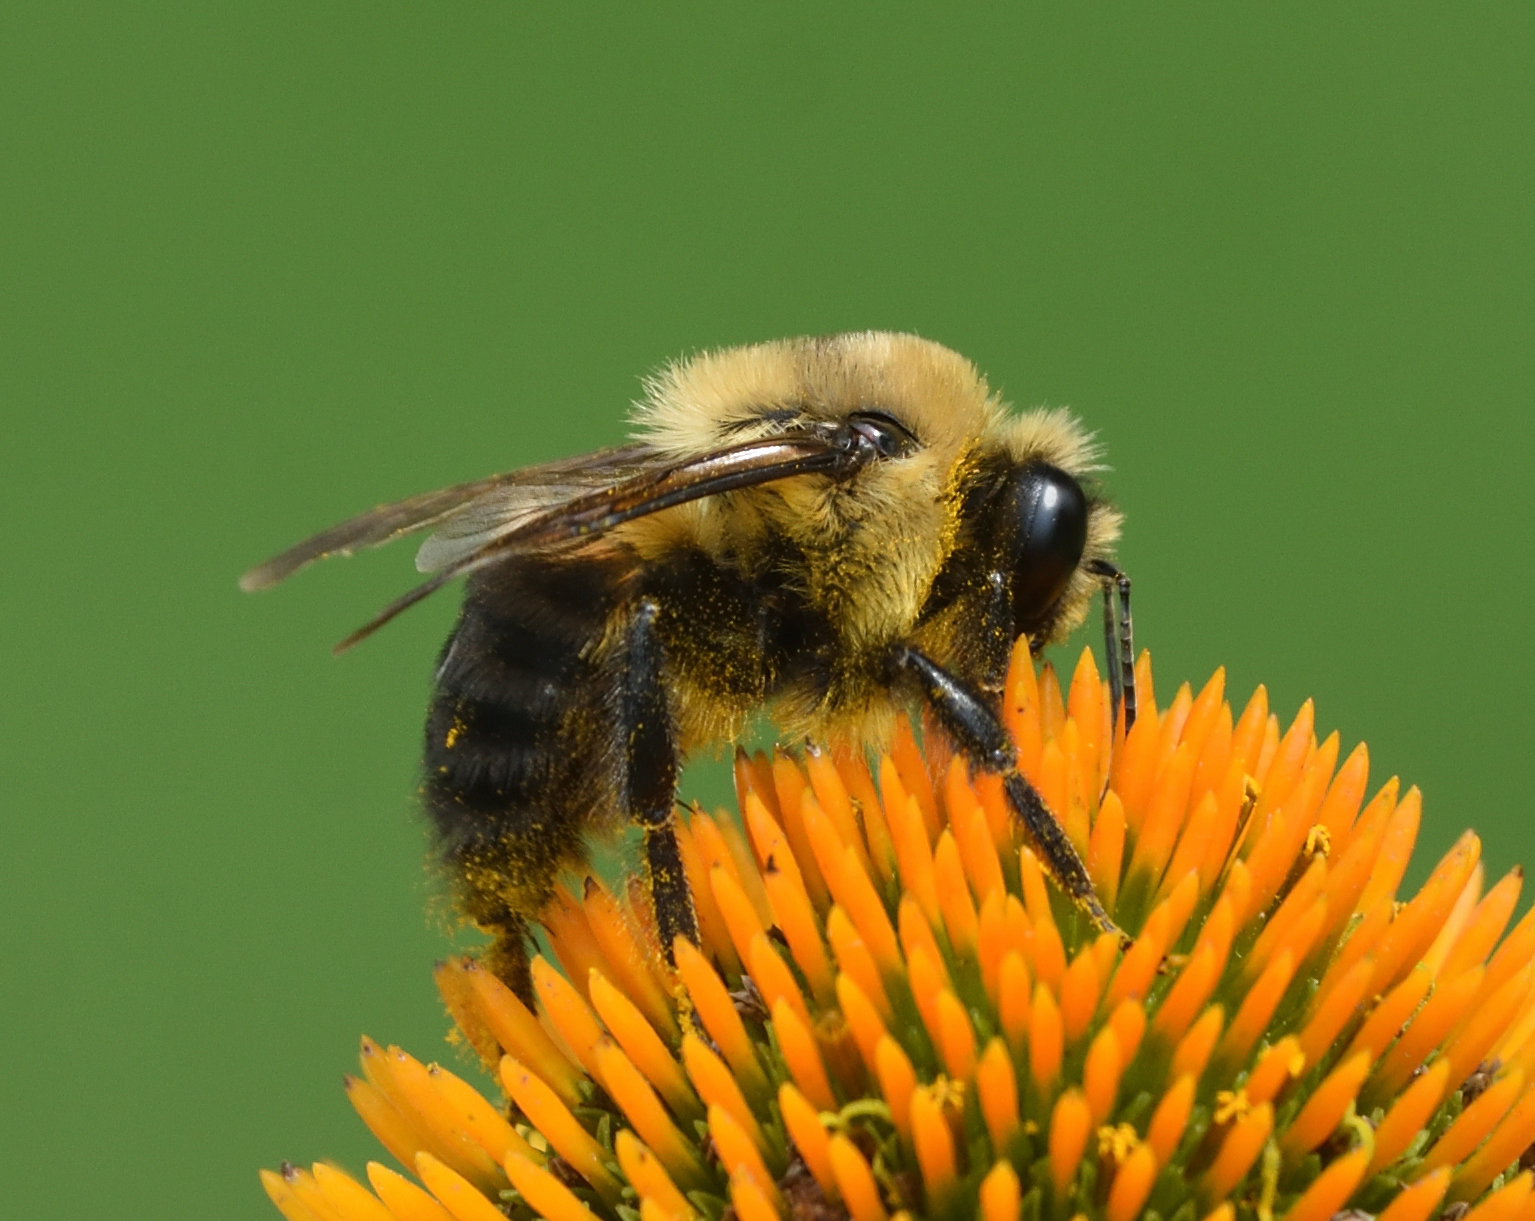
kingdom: Animalia
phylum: Arthropoda
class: Insecta
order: Hymenoptera
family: Apidae
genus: Bombus
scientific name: Bombus griseocollis
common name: Brown-belted bumble bee
